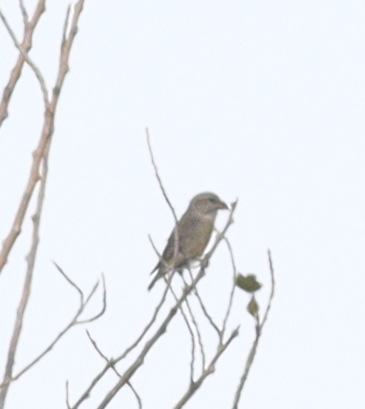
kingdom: Animalia
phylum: Chordata
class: Aves
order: Passeriformes
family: Fringillidae
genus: Loxia
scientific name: Loxia curvirostra
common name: Red crossbill
